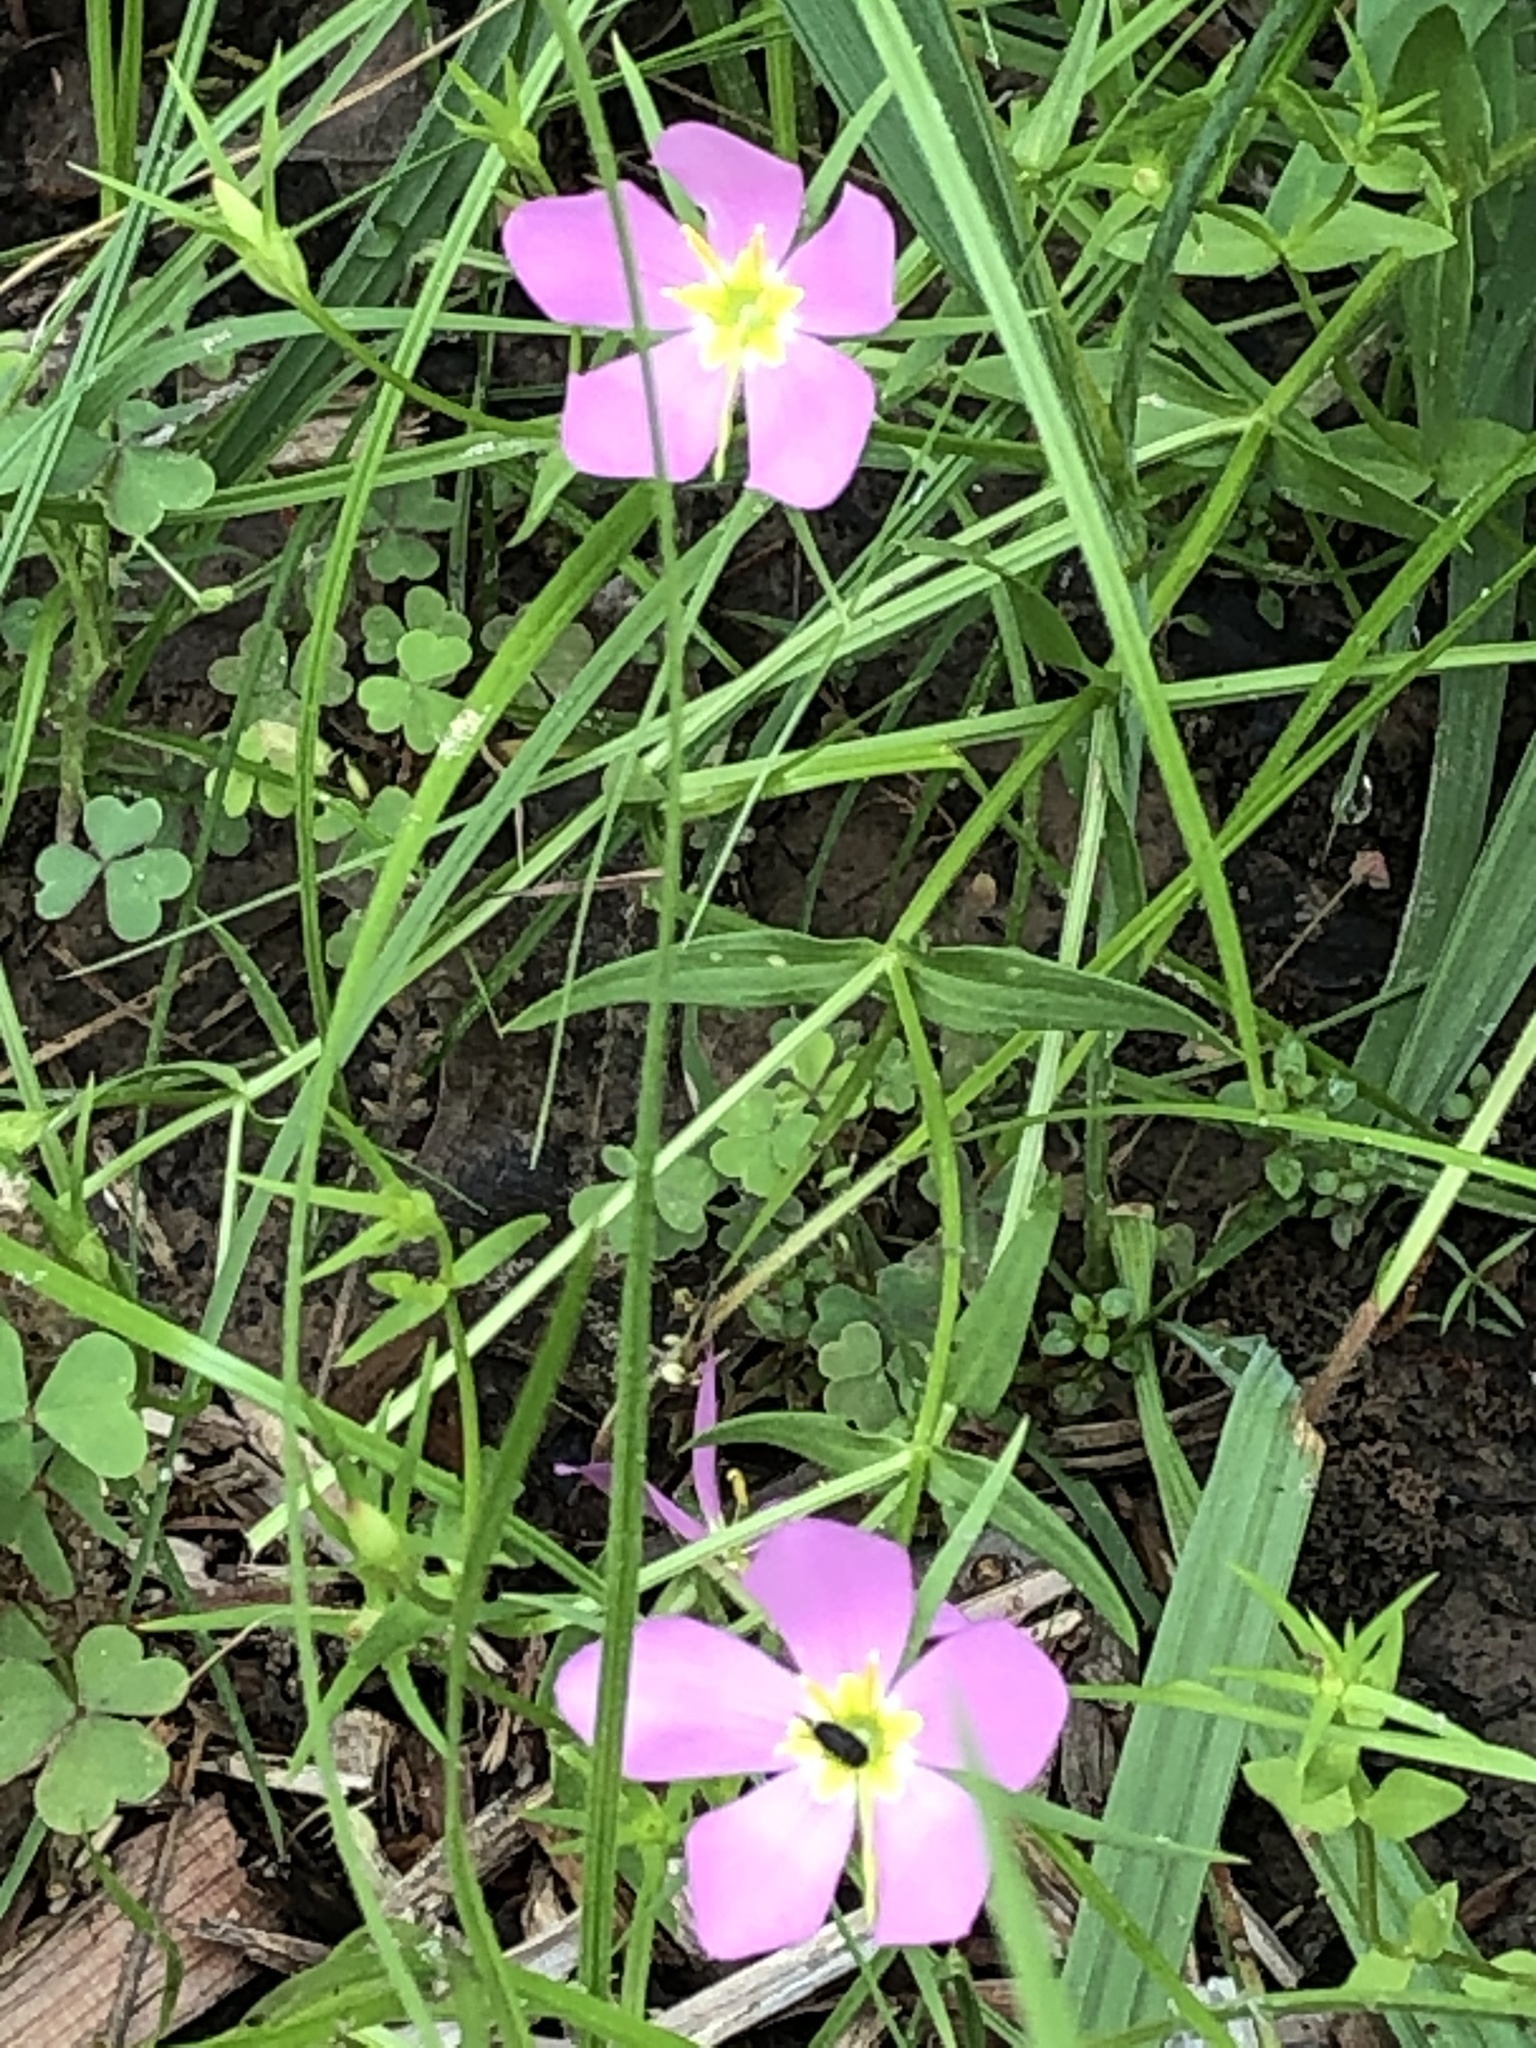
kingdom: Plantae
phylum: Tracheophyta
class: Magnoliopsida
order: Gentianales
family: Gentianaceae
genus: Sabatia
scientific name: Sabatia campestris
